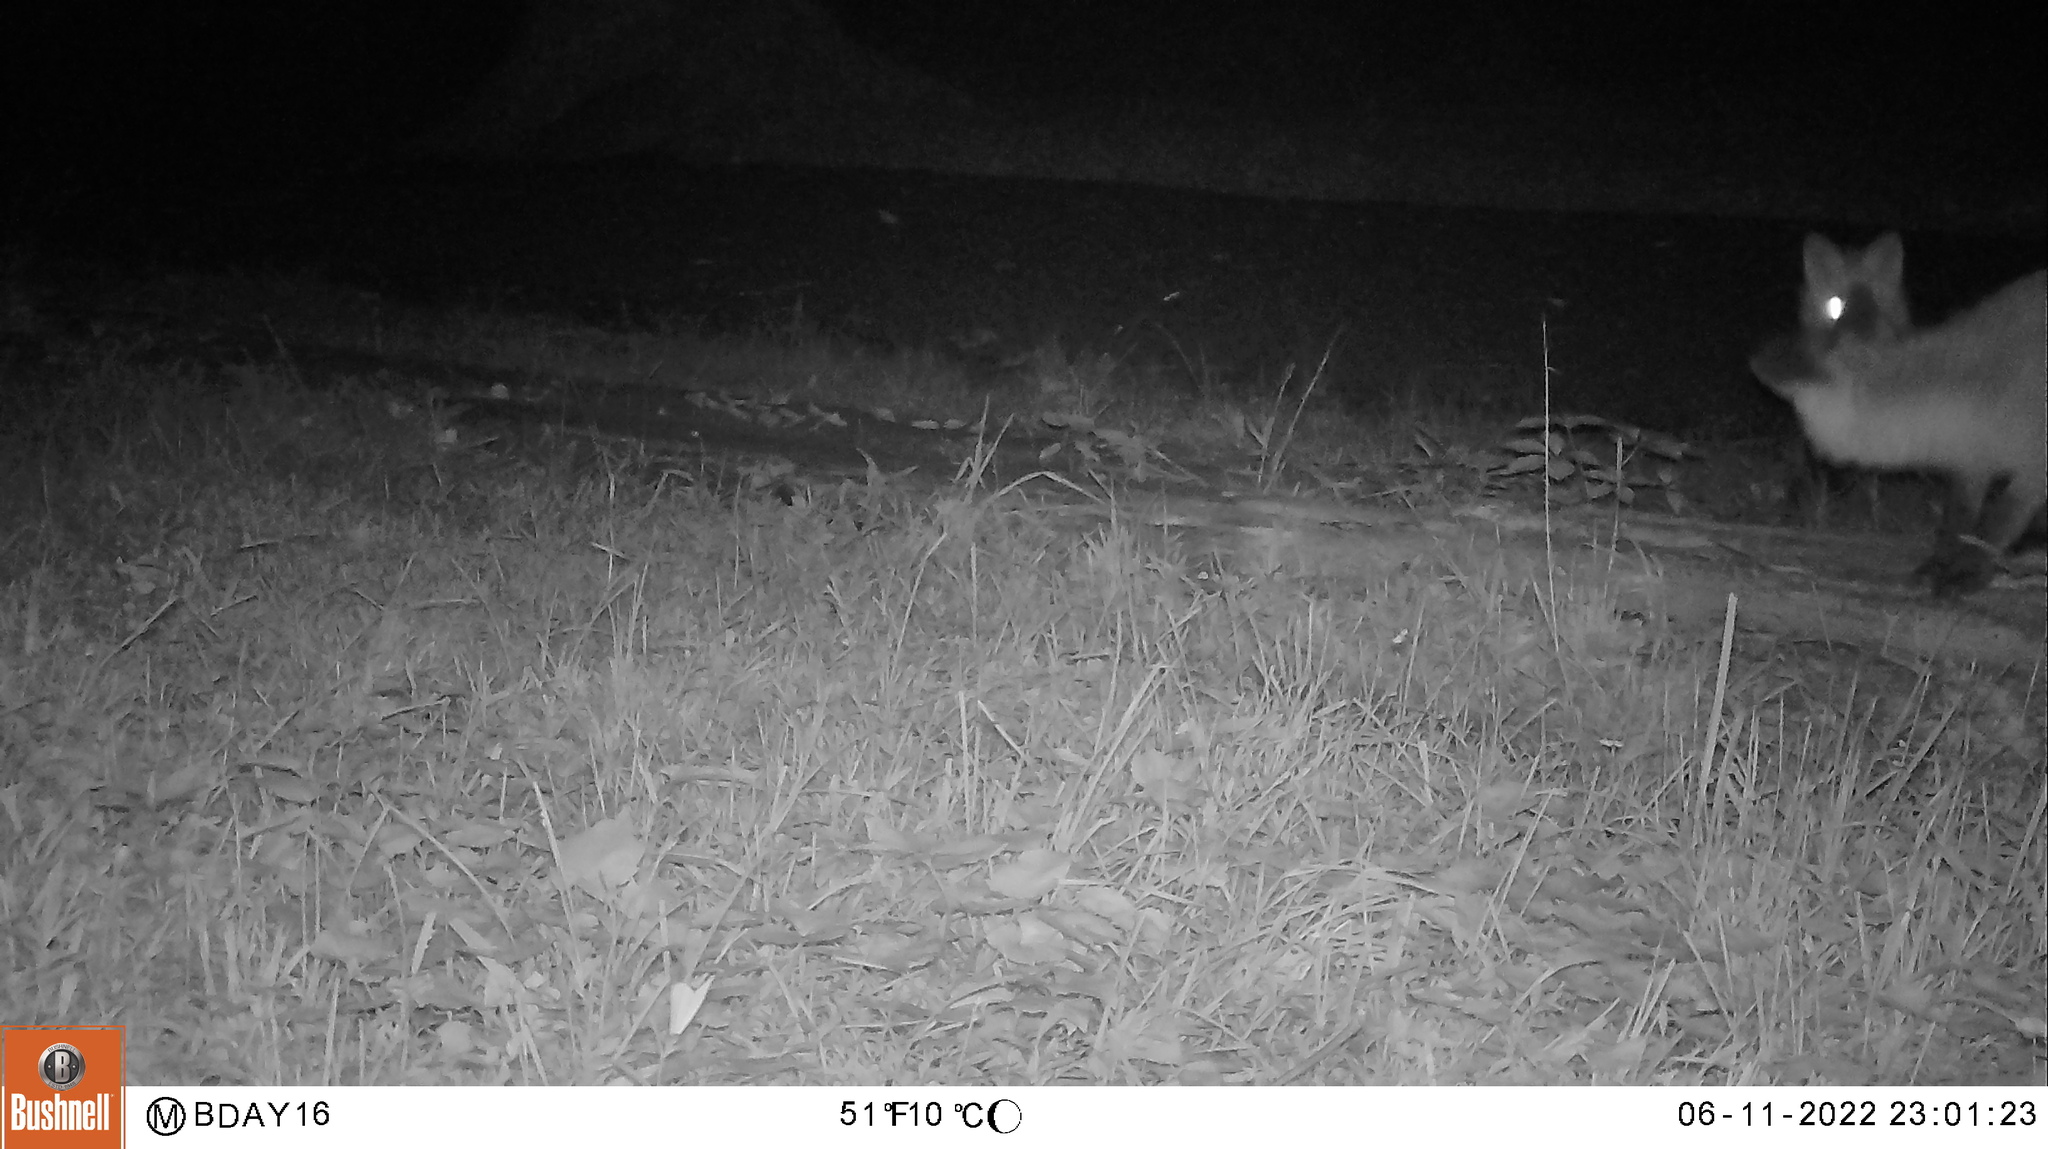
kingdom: Animalia
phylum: Chordata
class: Mammalia
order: Carnivora
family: Canidae
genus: Vulpes
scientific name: Vulpes vulpes
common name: Red fox
